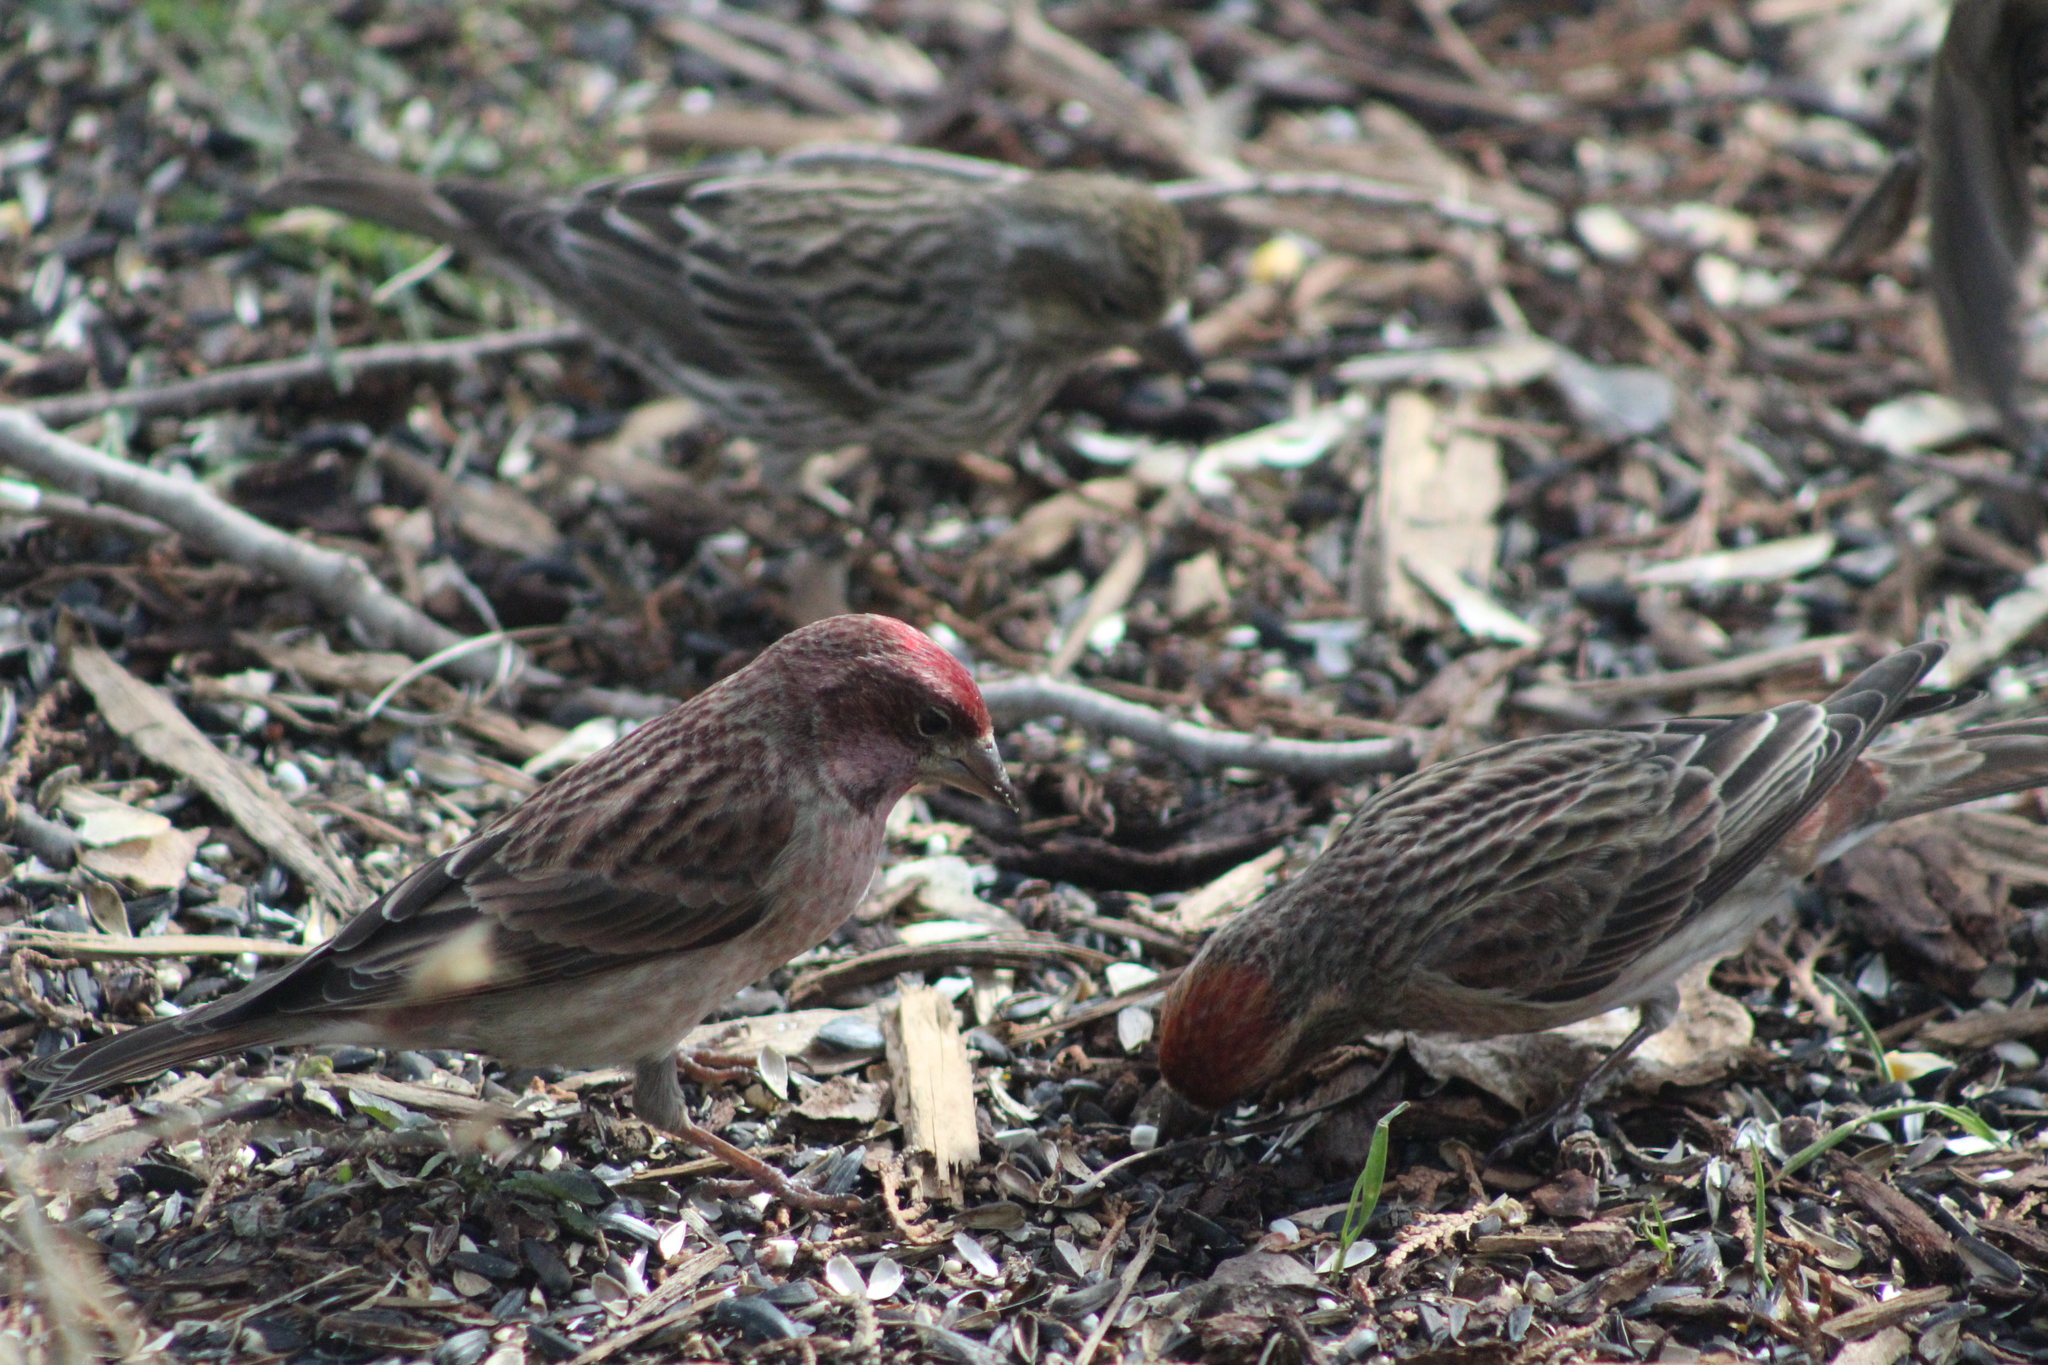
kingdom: Animalia
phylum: Chordata
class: Aves
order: Passeriformes
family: Fringillidae
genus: Haemorhous
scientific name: Haemorhous cassinii
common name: Cassin's finch
